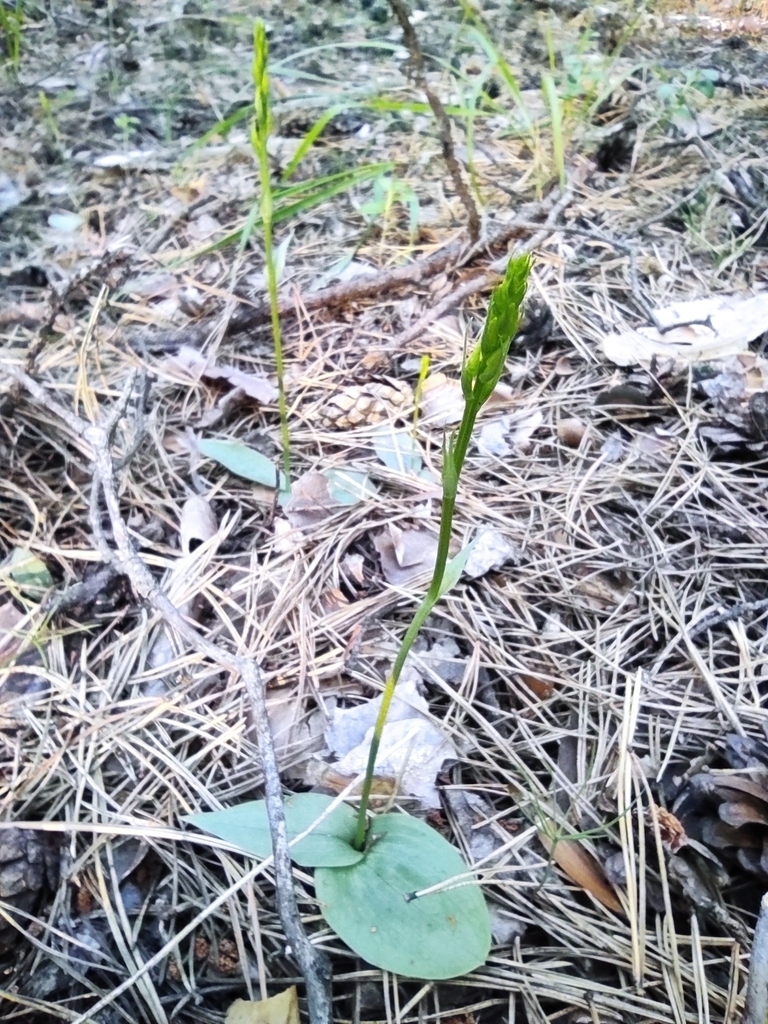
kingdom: Plantae
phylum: Tracheophyta
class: Liliopsida
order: Asparagales
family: Orchidaceae
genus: Hemipilia
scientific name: Hemipilia cucullata
